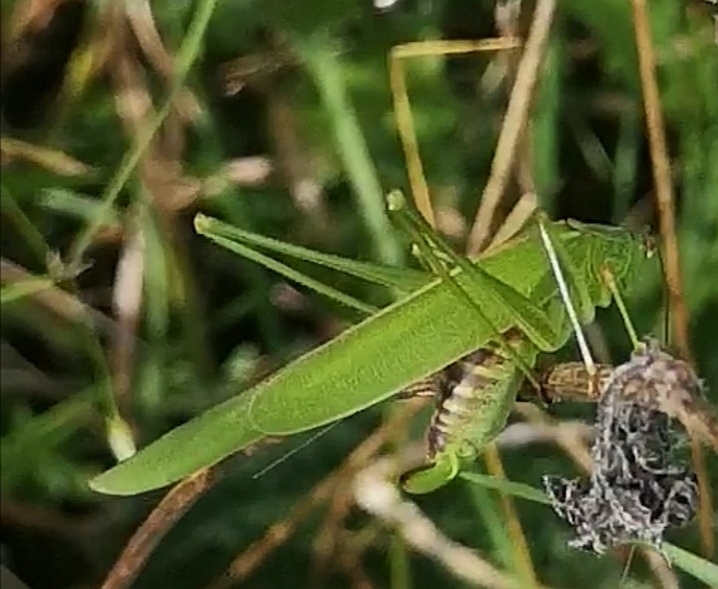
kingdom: Animalia
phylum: Arthropoda
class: Insecta
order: Orthoptera
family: Tettigoniidae
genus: Phaneroptera
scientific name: Phaneroptera falcata
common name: Sickle-bearing bush-cricket
